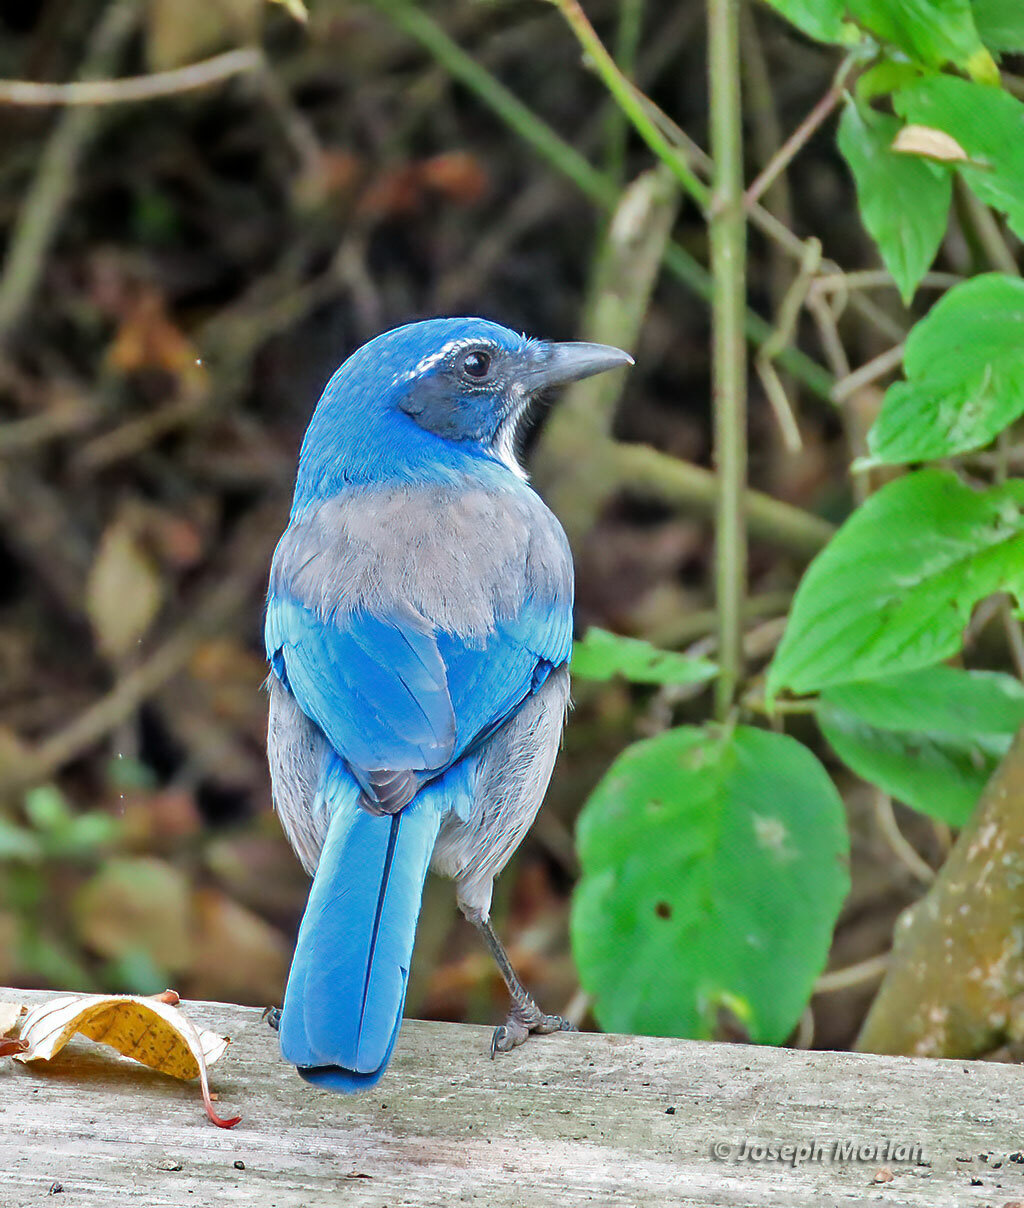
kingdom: Animalia
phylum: Chordata
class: Aves
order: Passeriformes
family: Corvidae
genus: Aphelocoma
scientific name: Aphelocoma californica
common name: California scrub-jay
